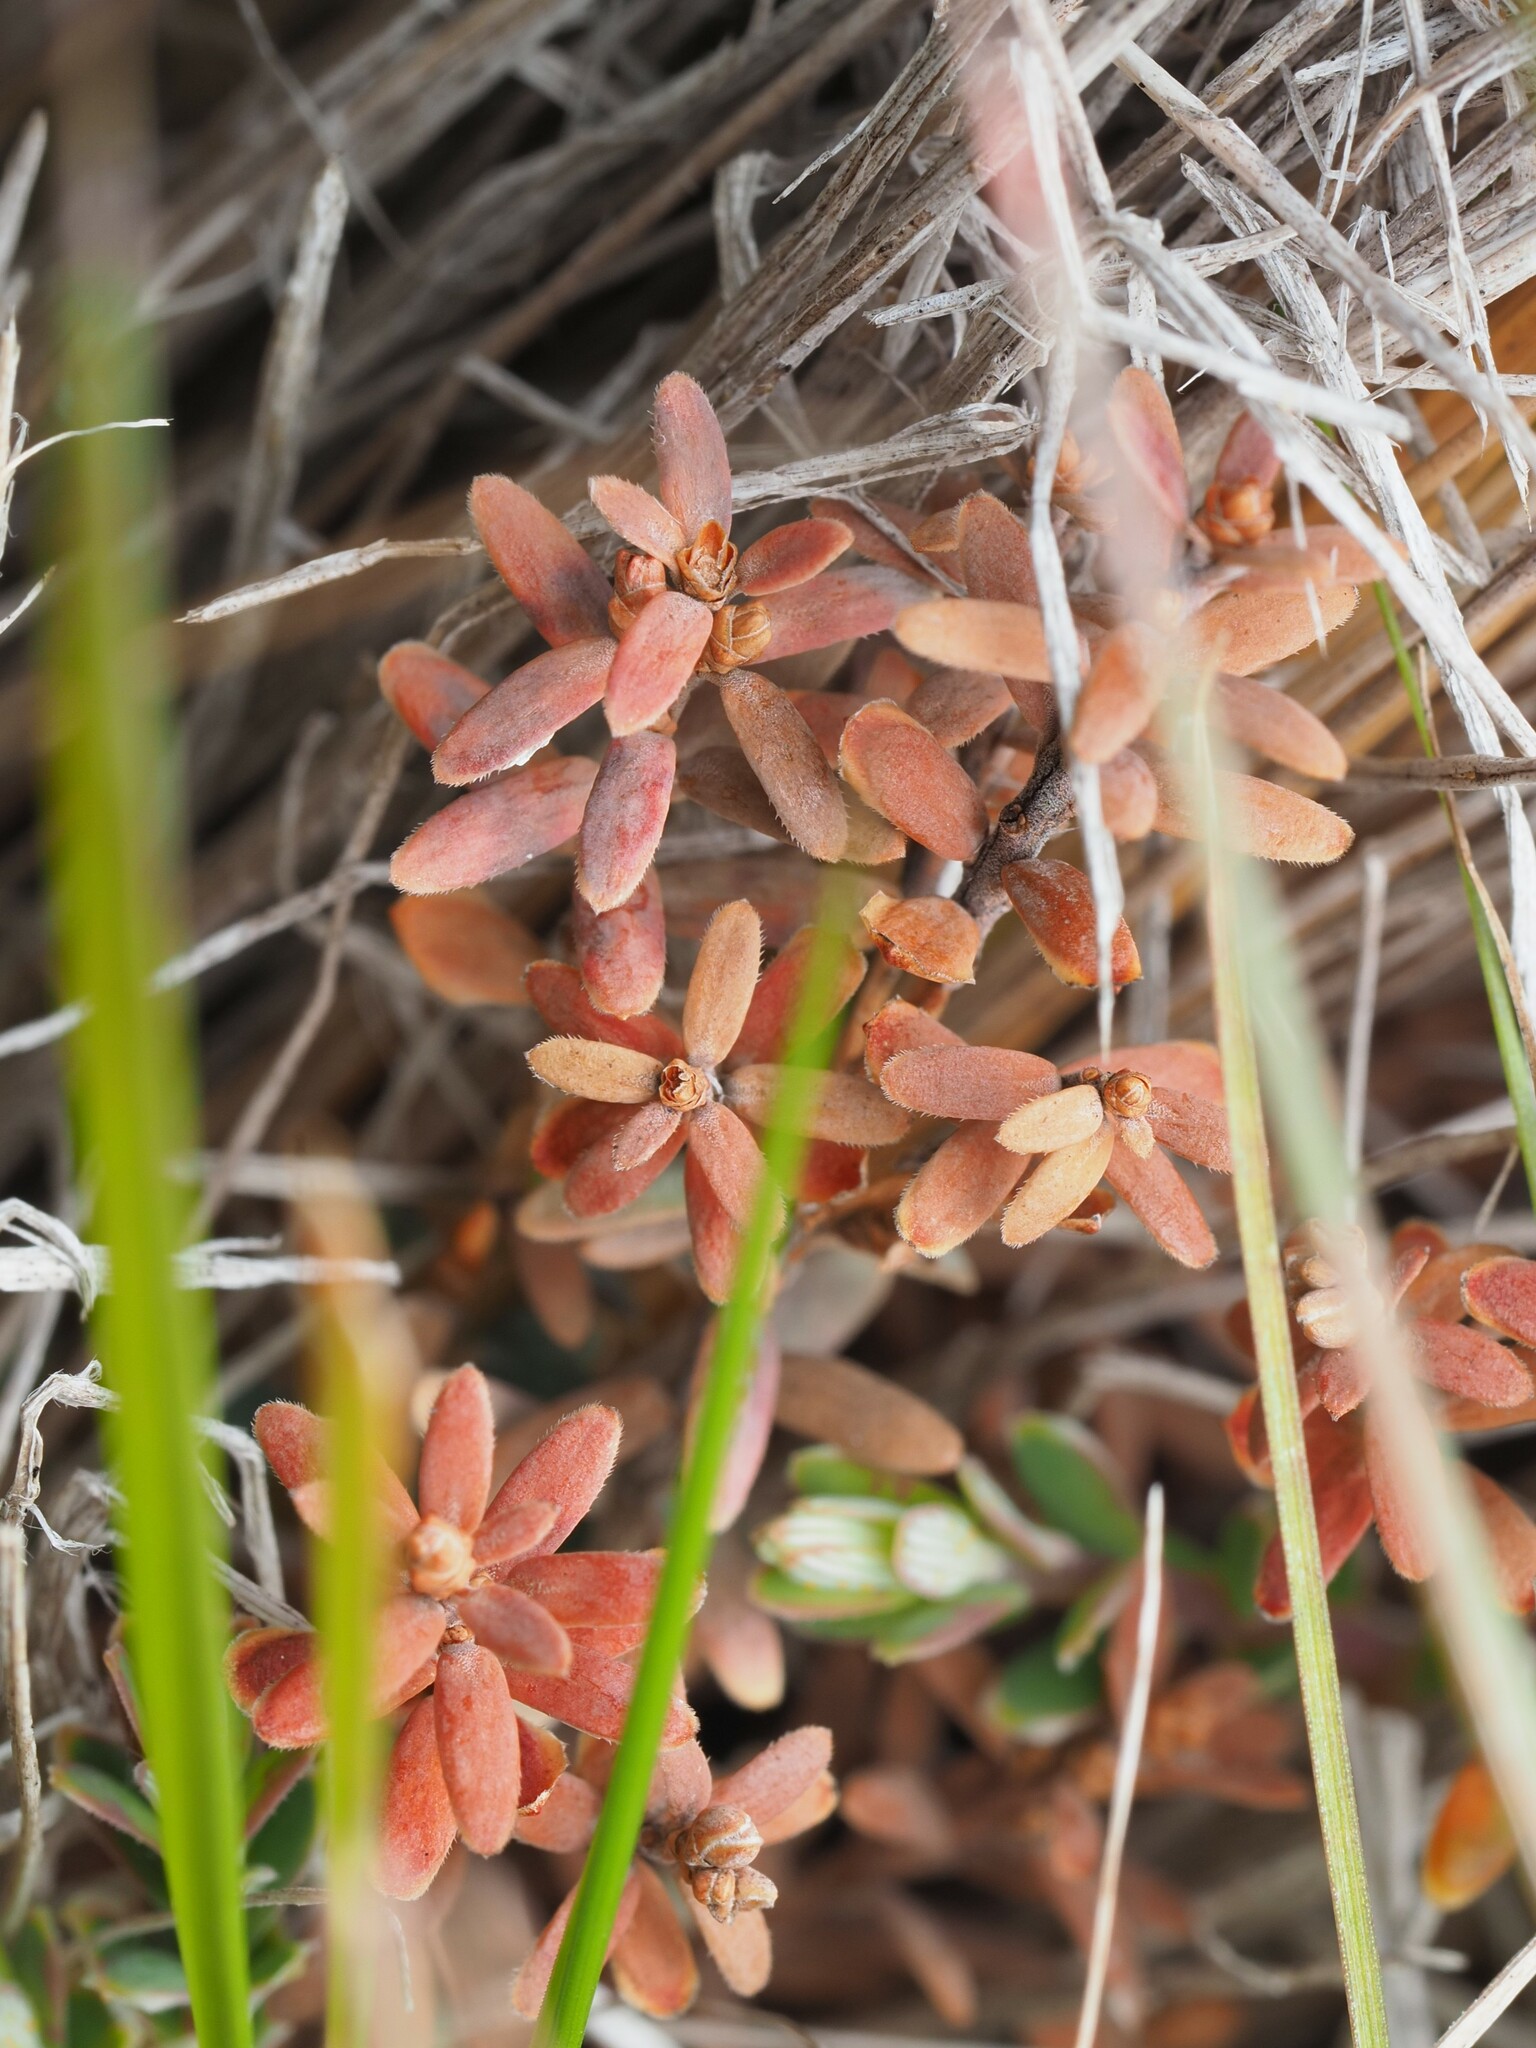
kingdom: Plantae
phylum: Tracheophyta
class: Magnoliopsida
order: Ericales
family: Ericaceae
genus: Acrothamnus
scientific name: Acrothamnus colensoi
